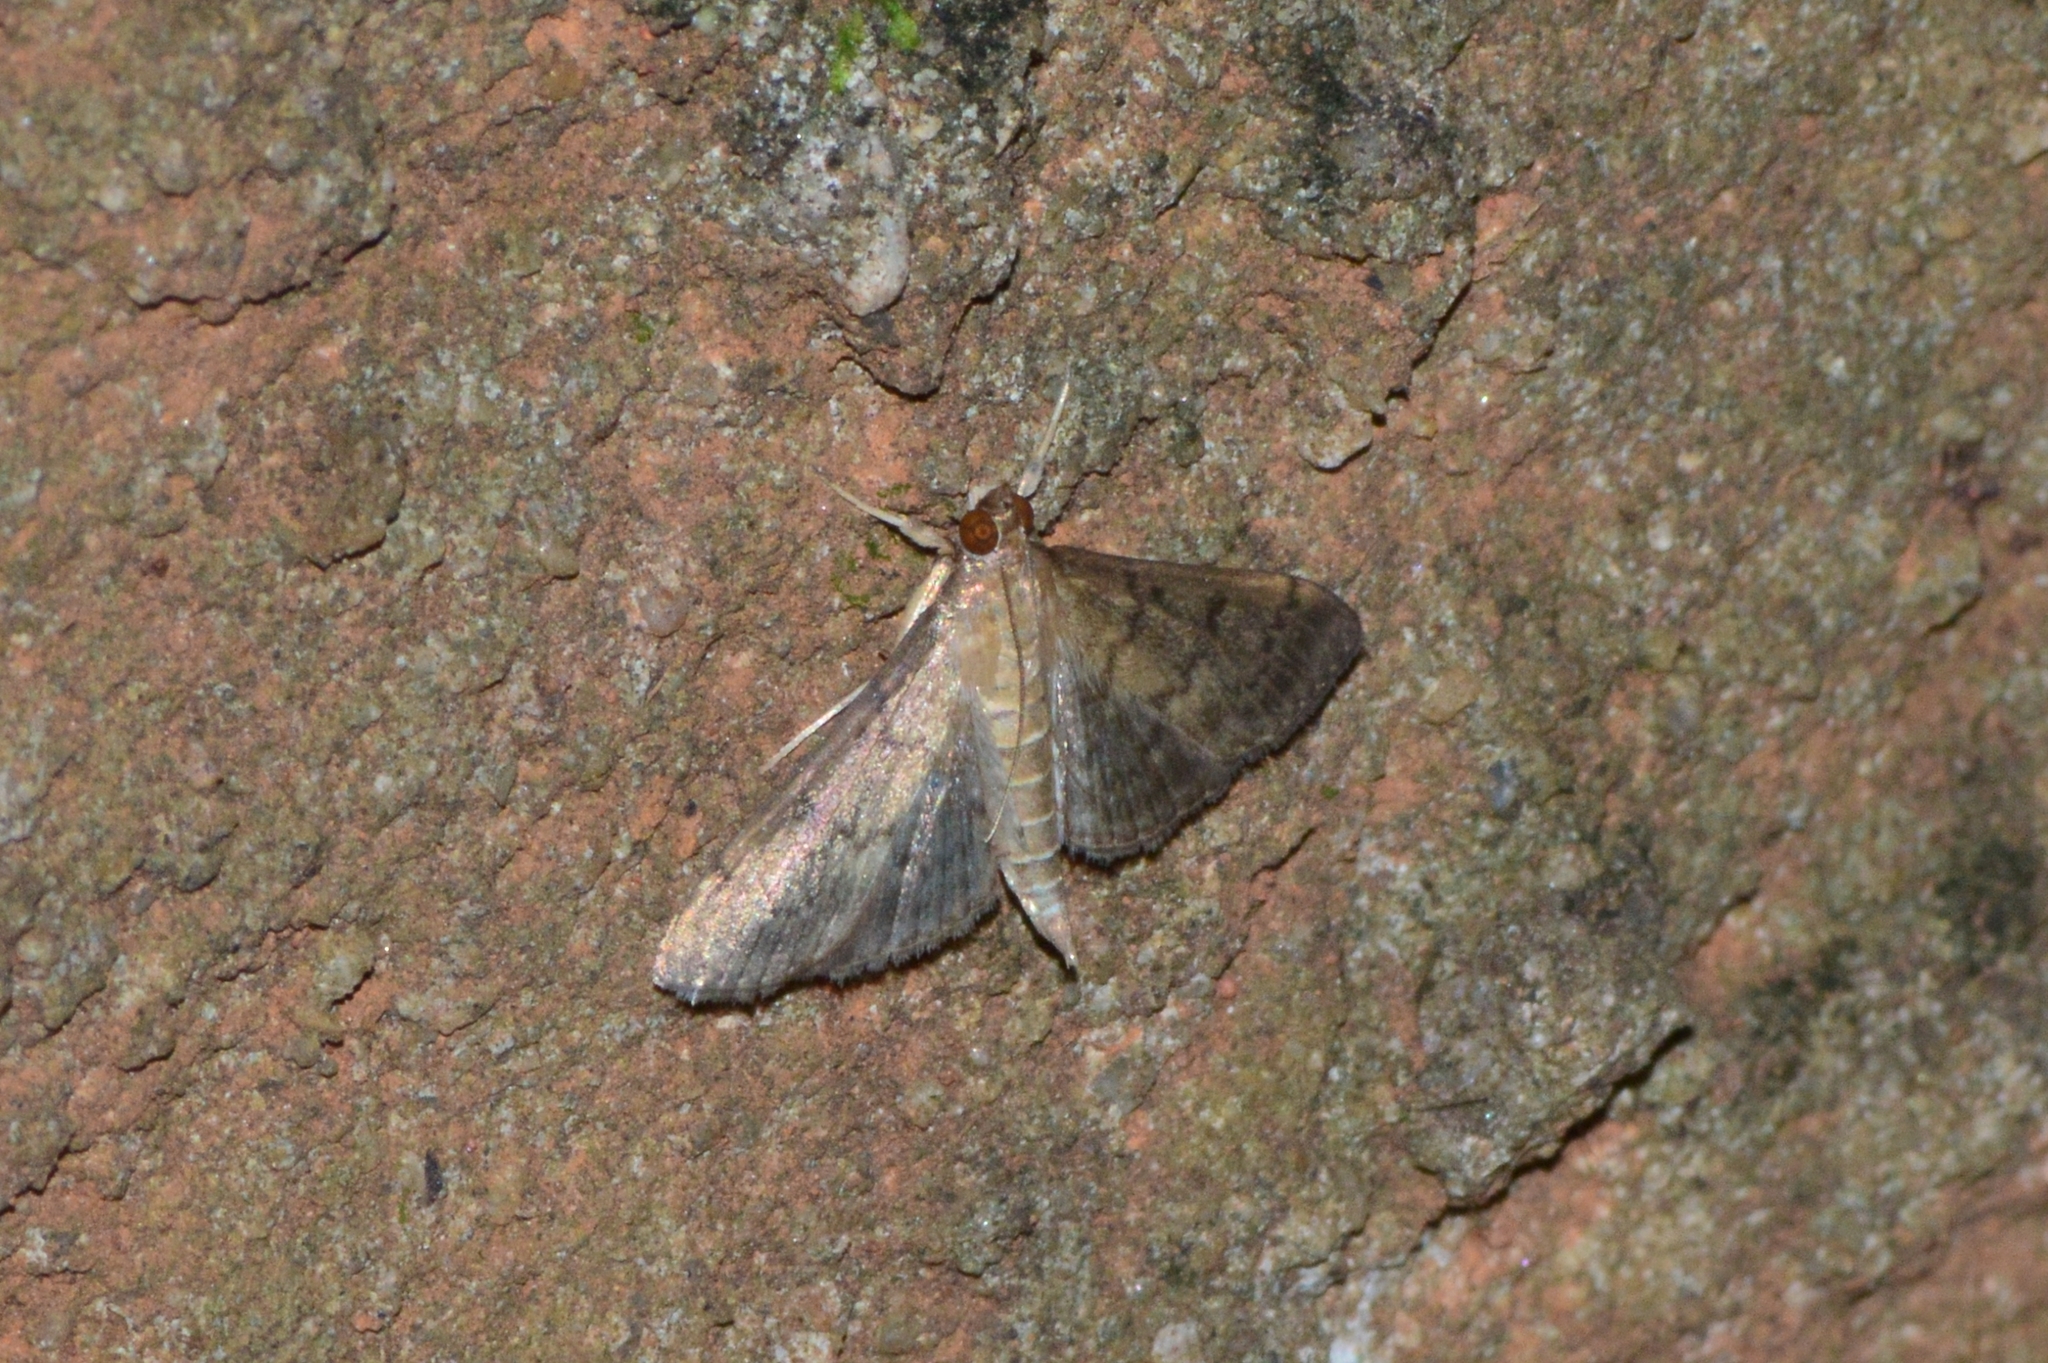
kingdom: Animalia
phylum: Arthropoda
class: Insecta
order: Lepidoptera
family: Crambidae
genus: Herpetogramma
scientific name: Herpetogramma phaeopteralis
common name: Dusky herpetogramma moth
